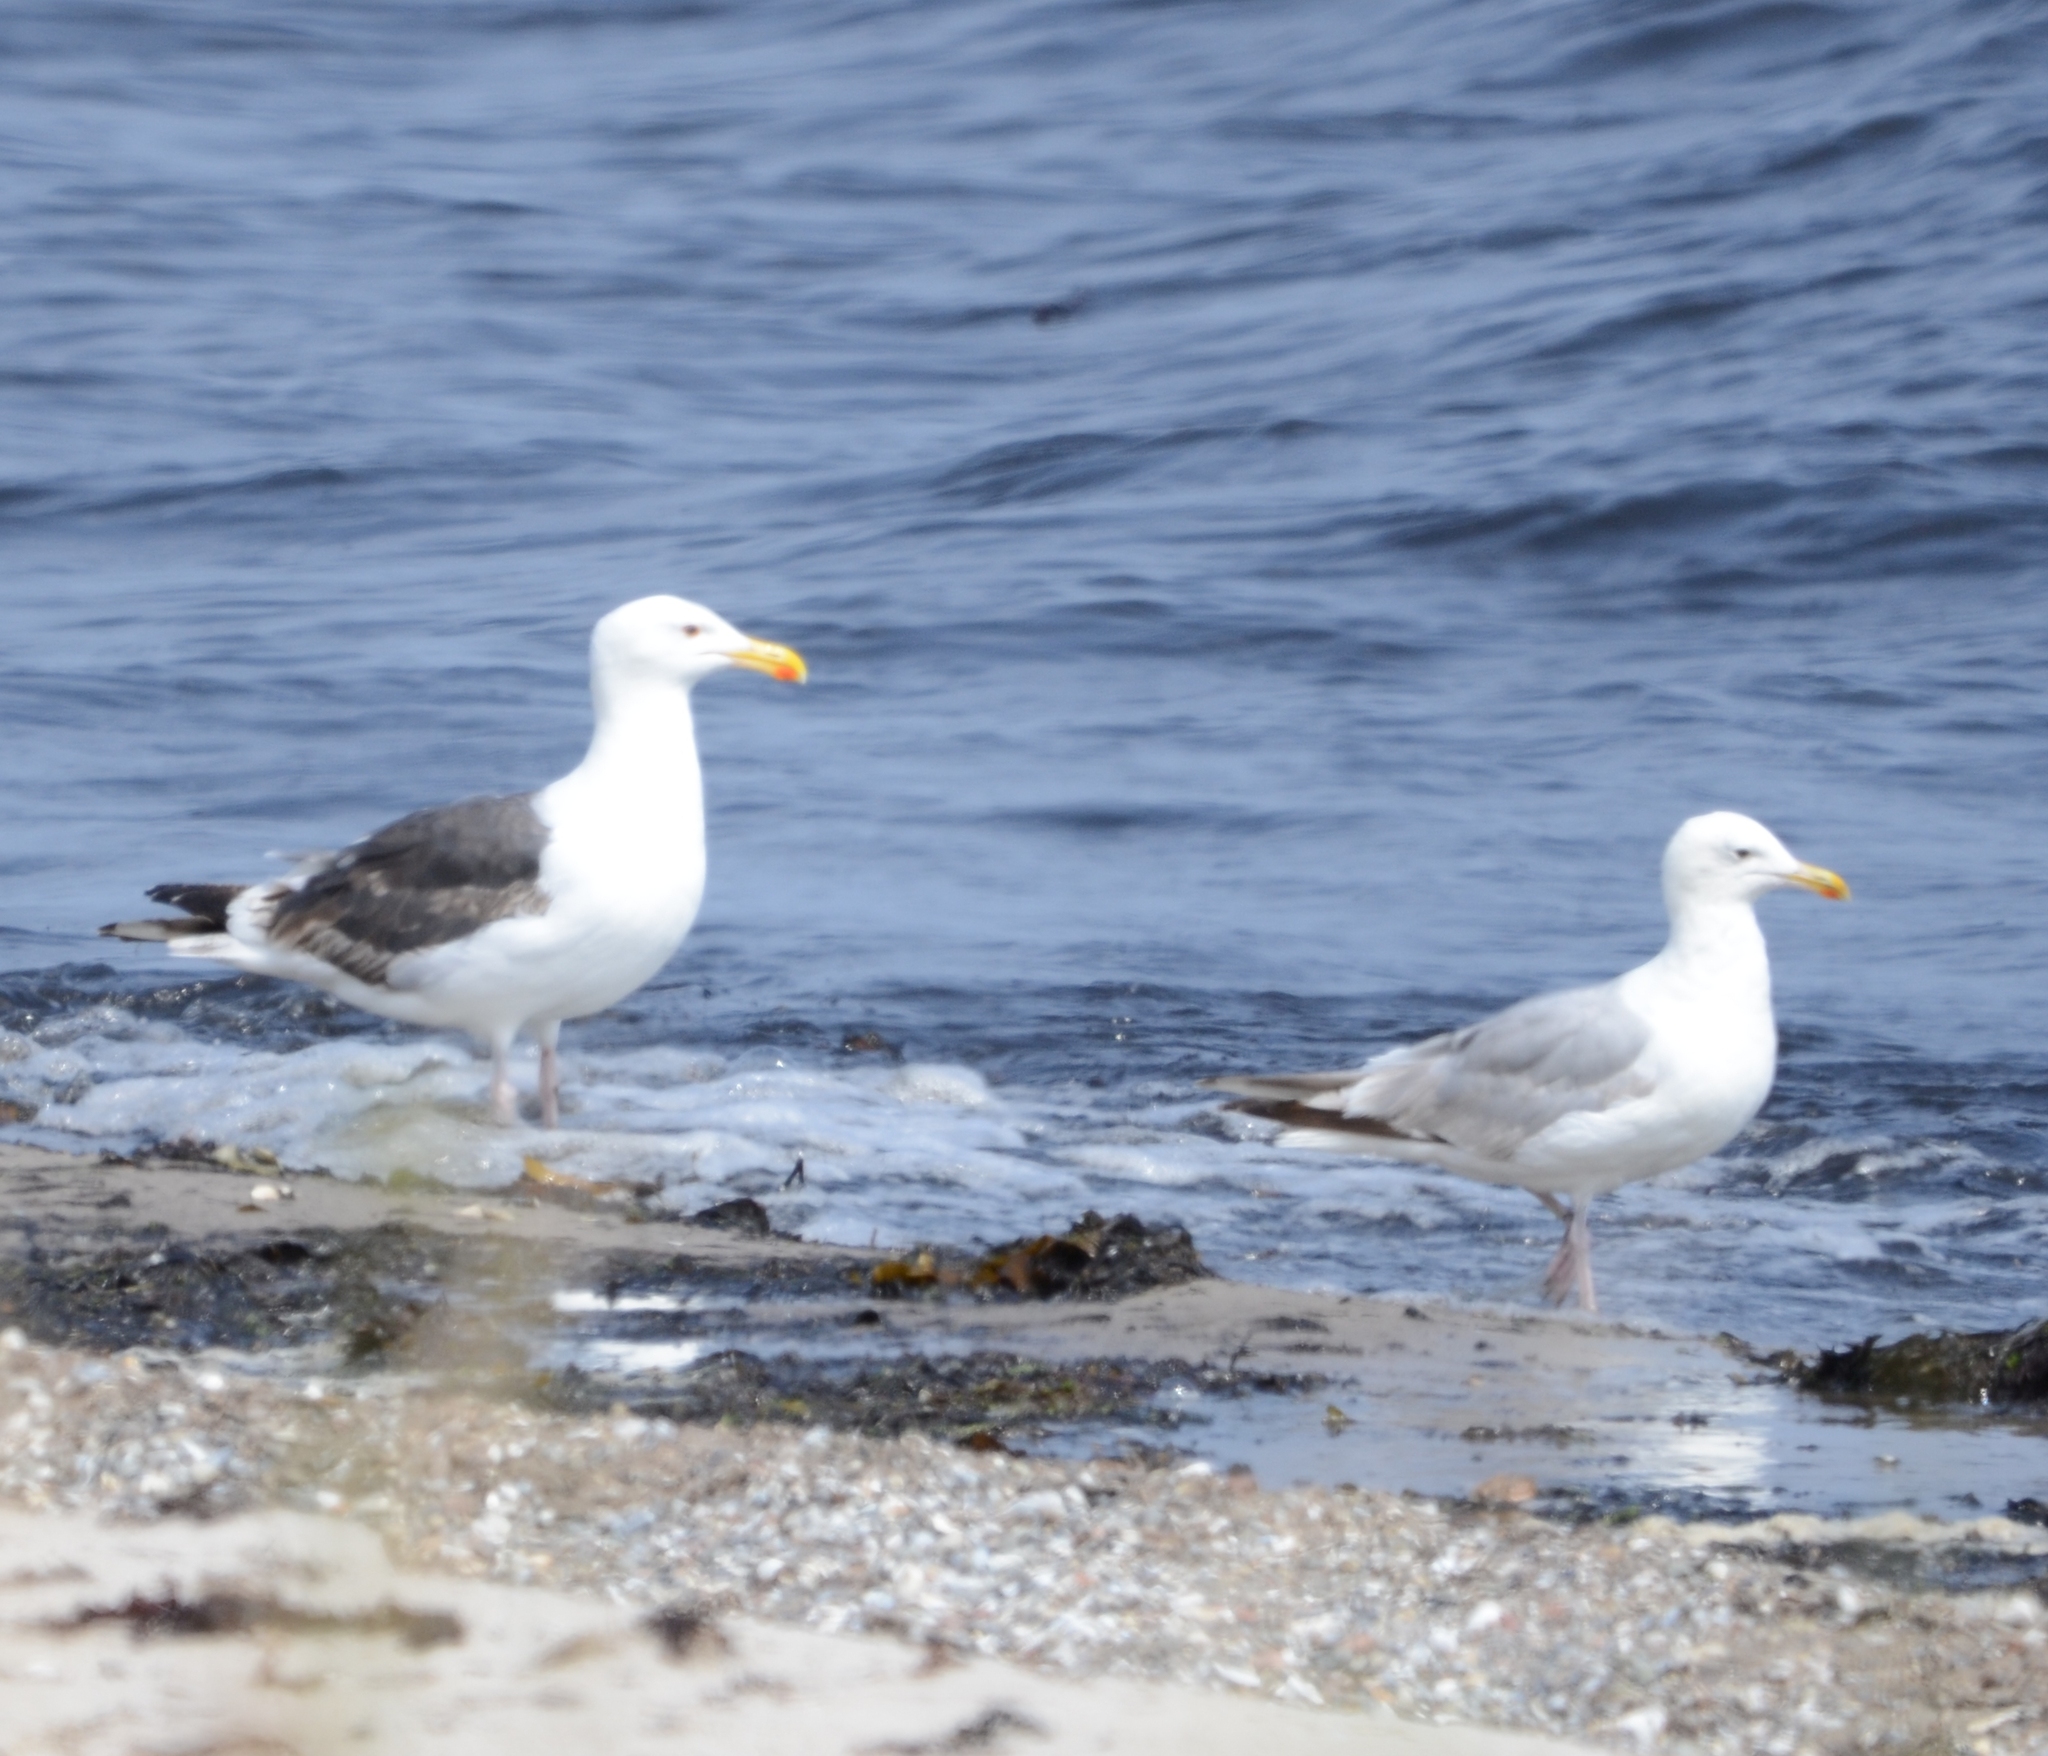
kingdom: Animalia
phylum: Chordata
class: Aves
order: Charadriiformes
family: Laridae
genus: Larus
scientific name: Larus marinus
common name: Great black-backed gull
